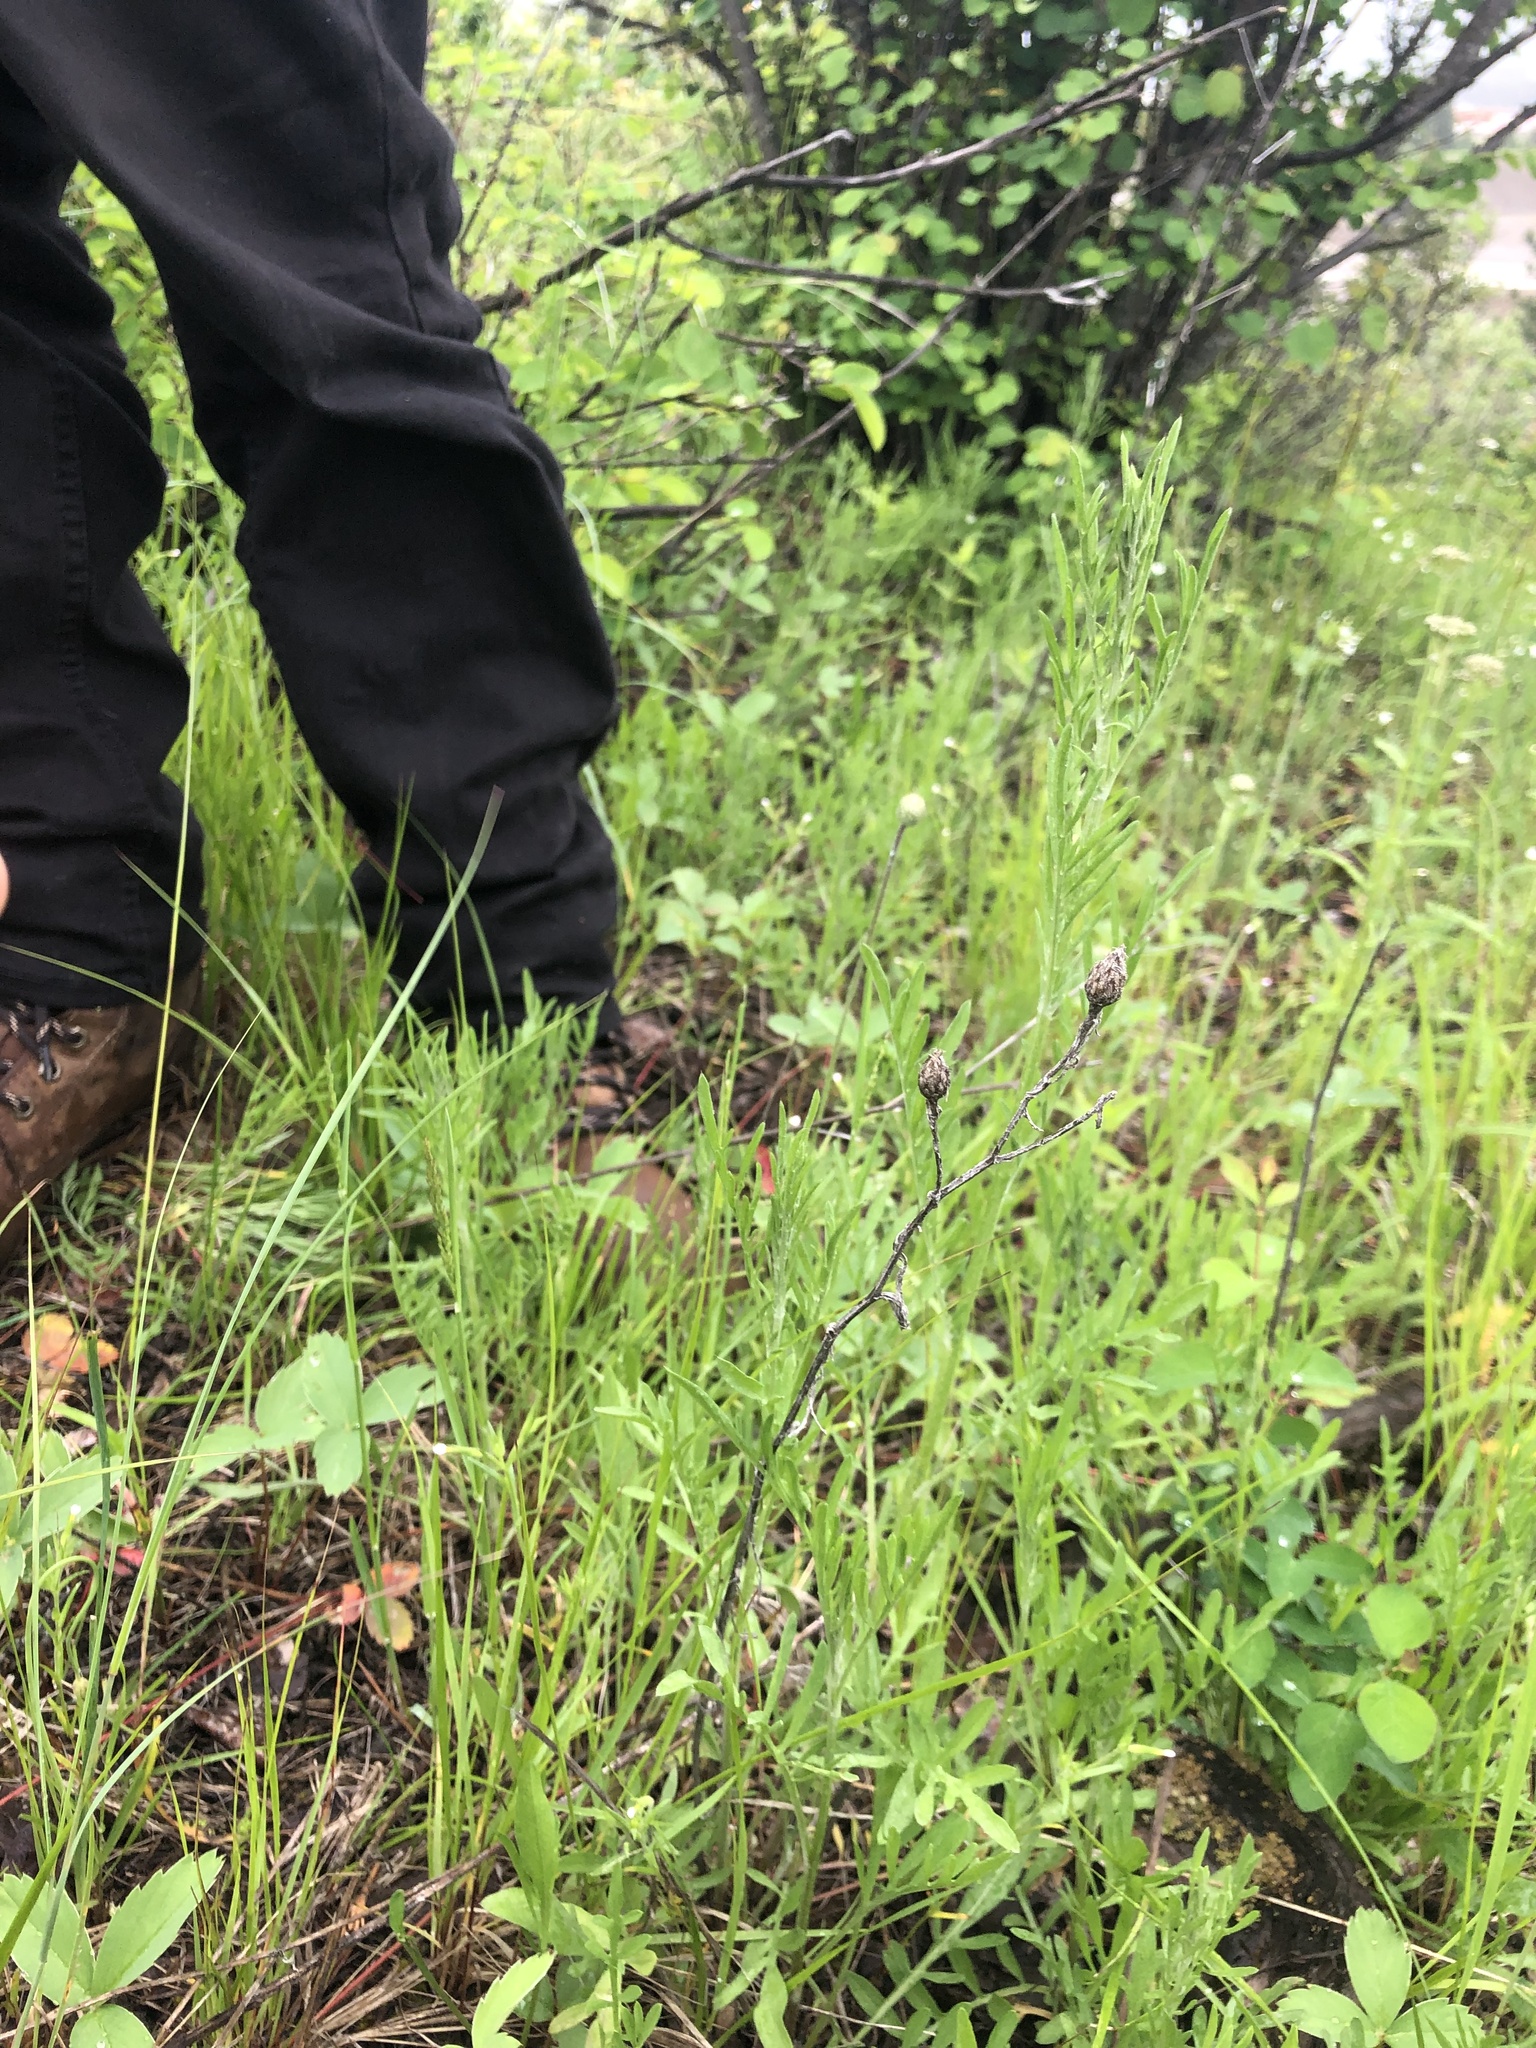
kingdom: Plantae
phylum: Tracheophyta
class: Magnoliopsida
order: Asterales
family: Asteraceae
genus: Centaurea
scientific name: Centaurea stoebe
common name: Spotted knapweed
